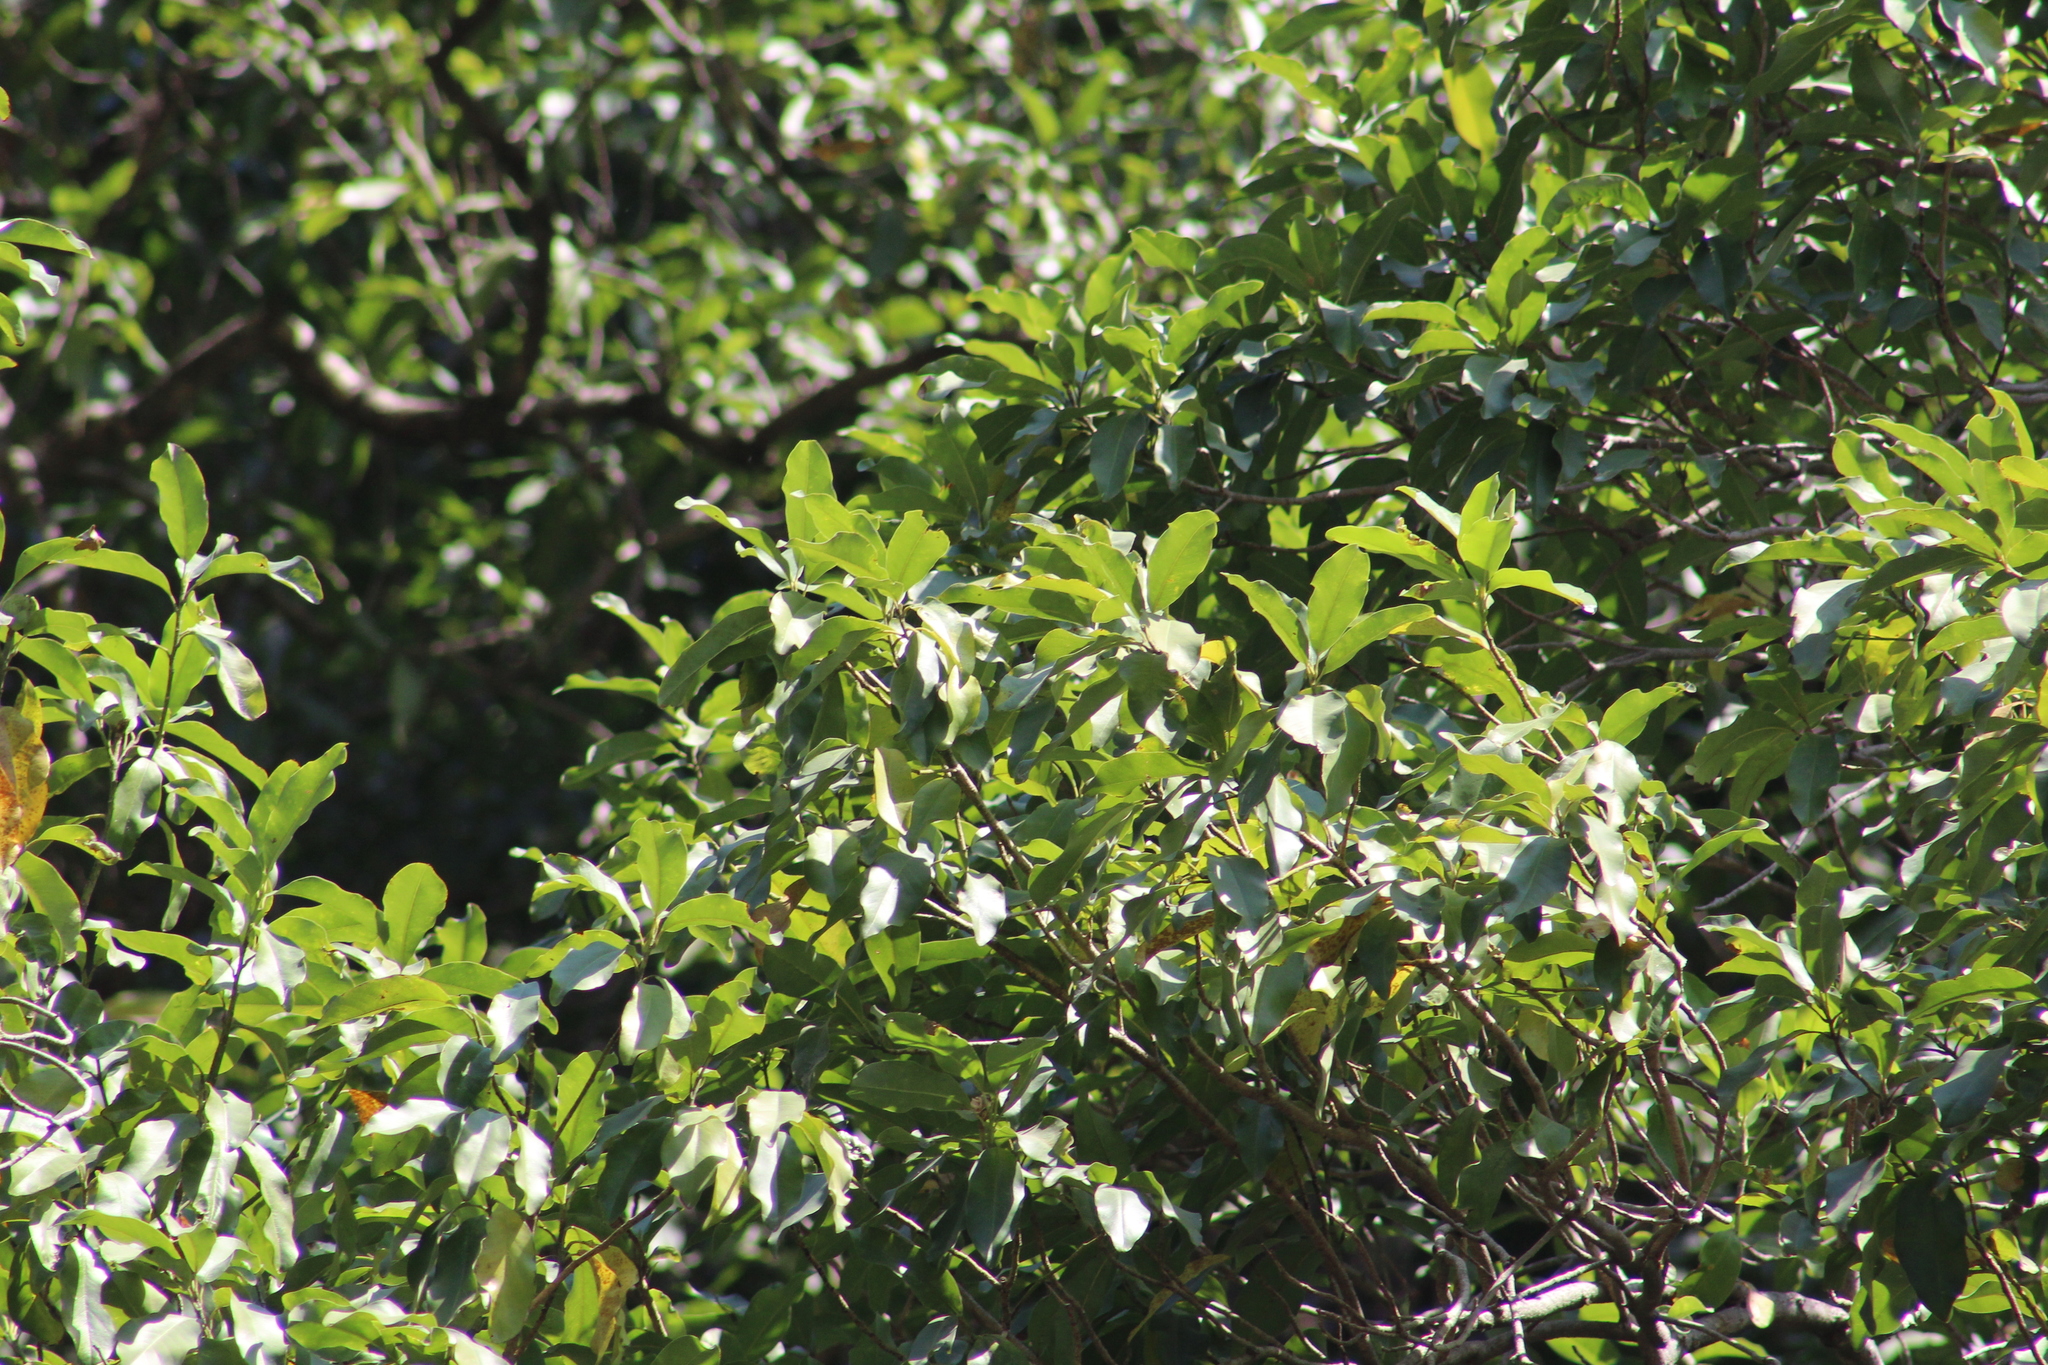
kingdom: Plantae
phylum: Tracheophyta
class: Magnoliopsida
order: Magnoliales
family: Magnoliaceae
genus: Magnolia
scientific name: Magnolia
